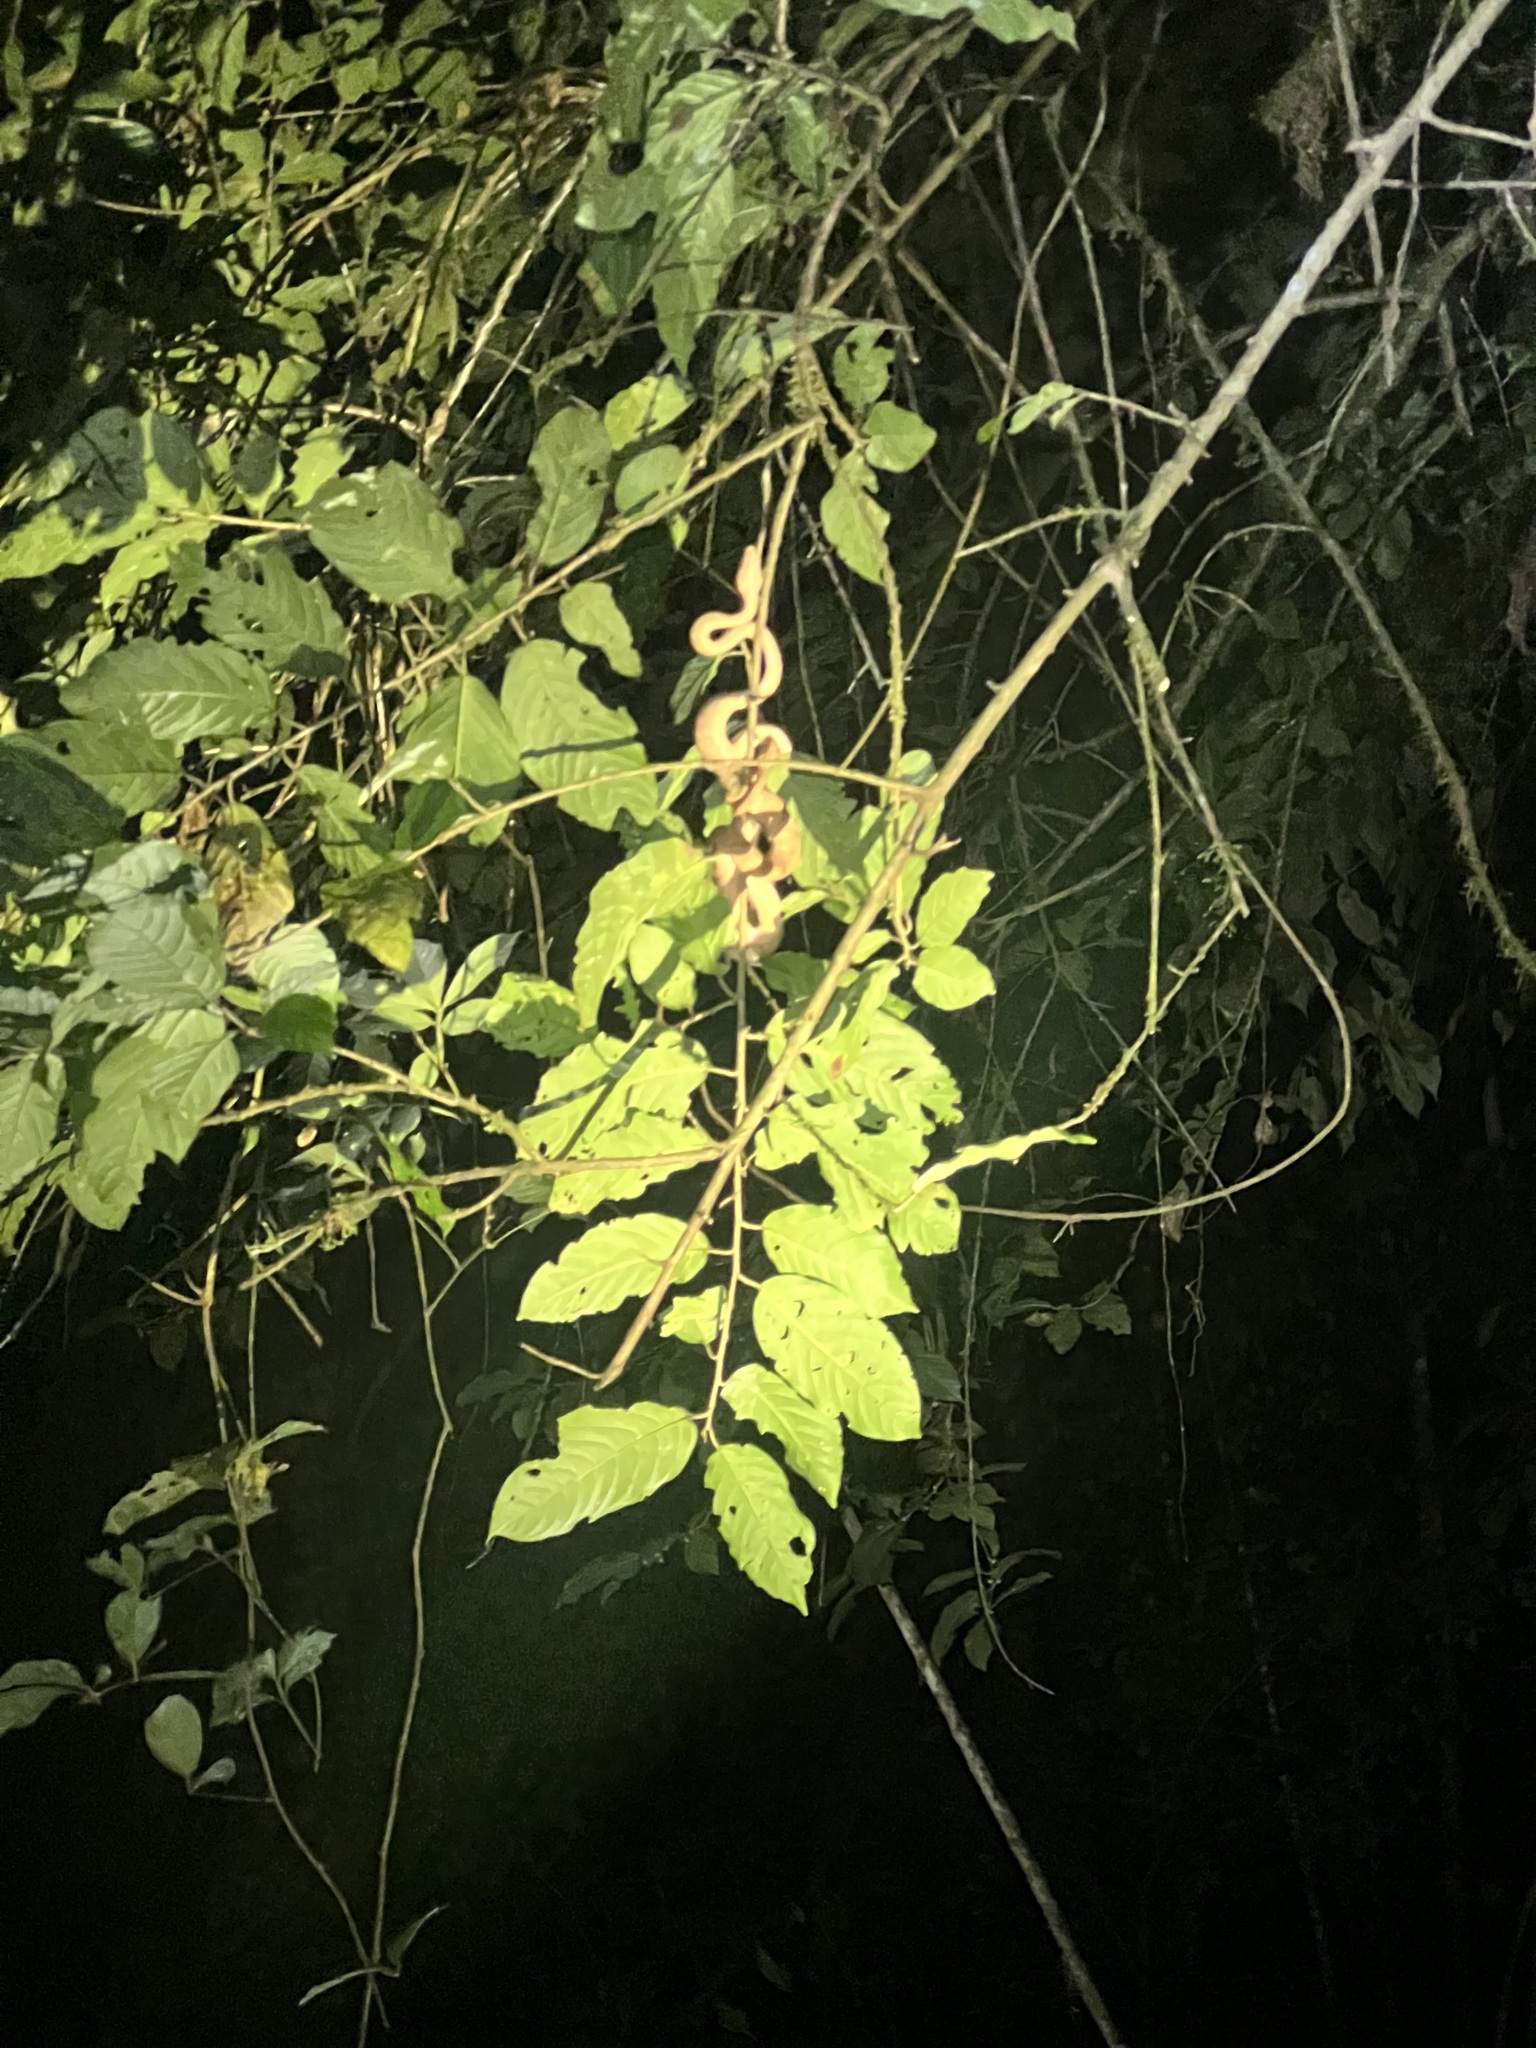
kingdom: Animalia
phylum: Chordata
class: Squamata
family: Boidae
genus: Corallus
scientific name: Corallus annulatus
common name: Ringed tree boa
